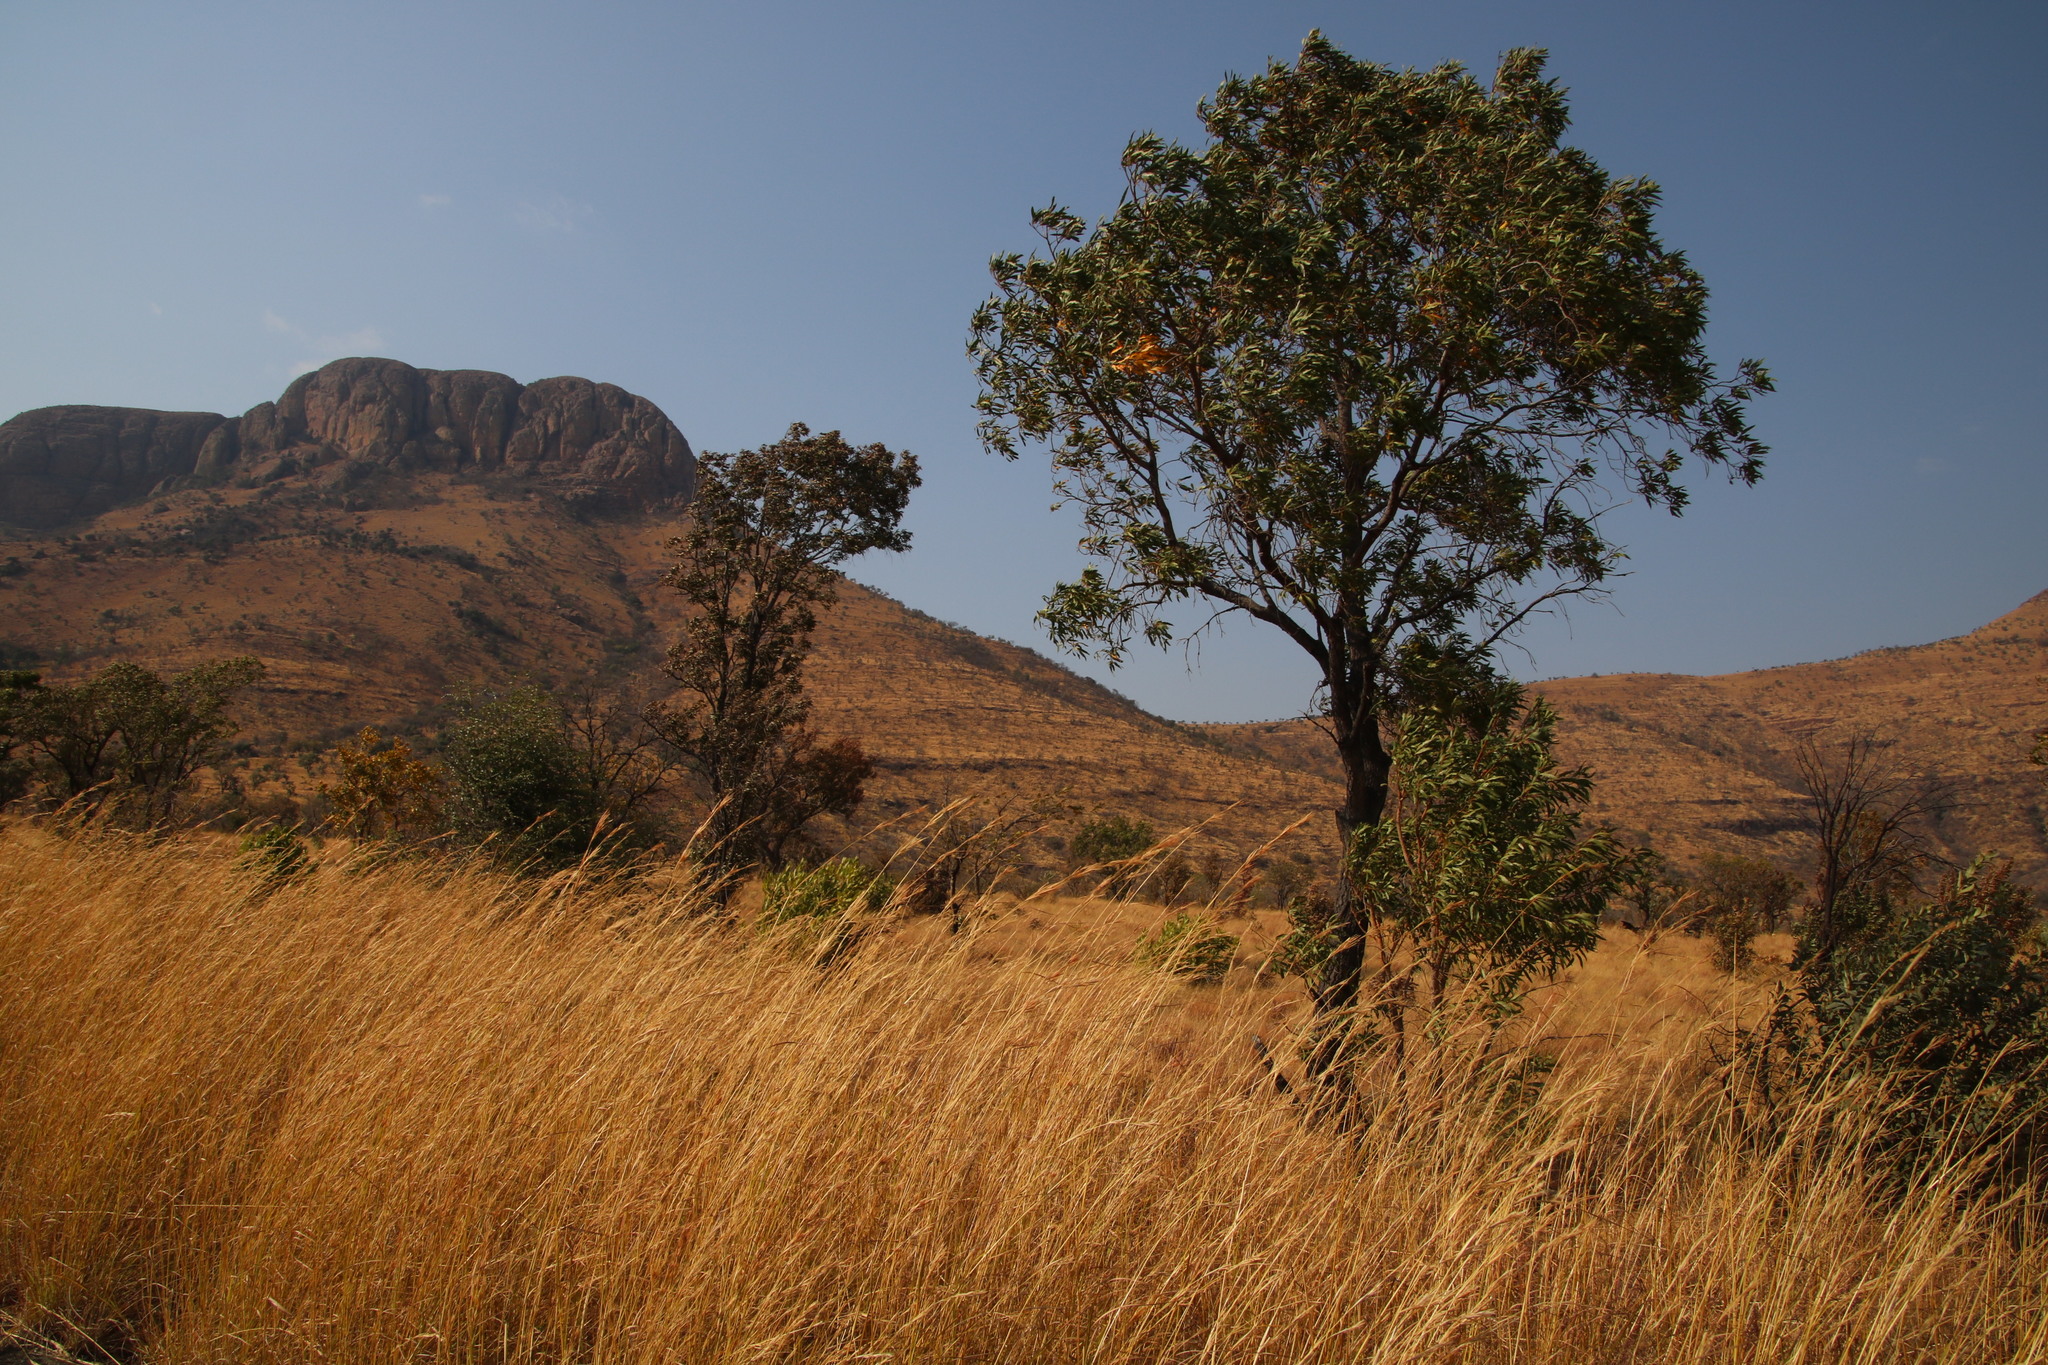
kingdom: Plantae
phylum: Tracheophyta
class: Magnoliopsida
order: Proteales
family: Proteaceae
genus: Faurea
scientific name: Faurea saligna
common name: African bean
